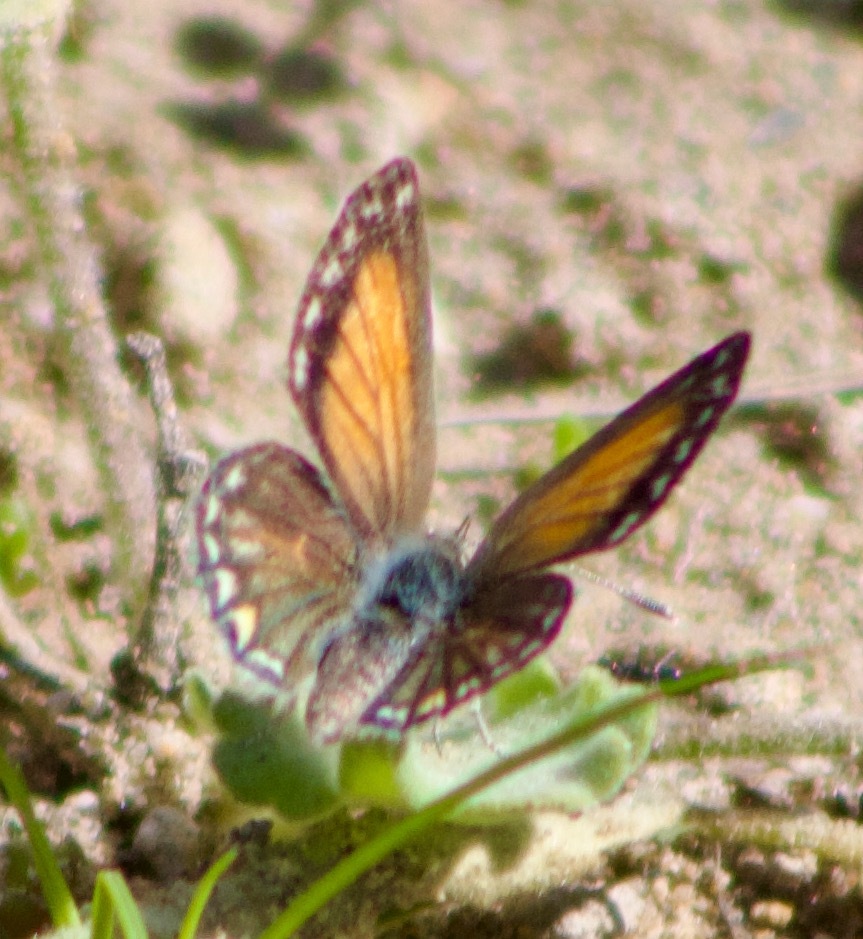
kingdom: Animalia
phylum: Arthropoda
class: Insecta
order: Lepidoptera
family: Lycaenidae
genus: Pseudolucia
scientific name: Pseudolucia chilensis
